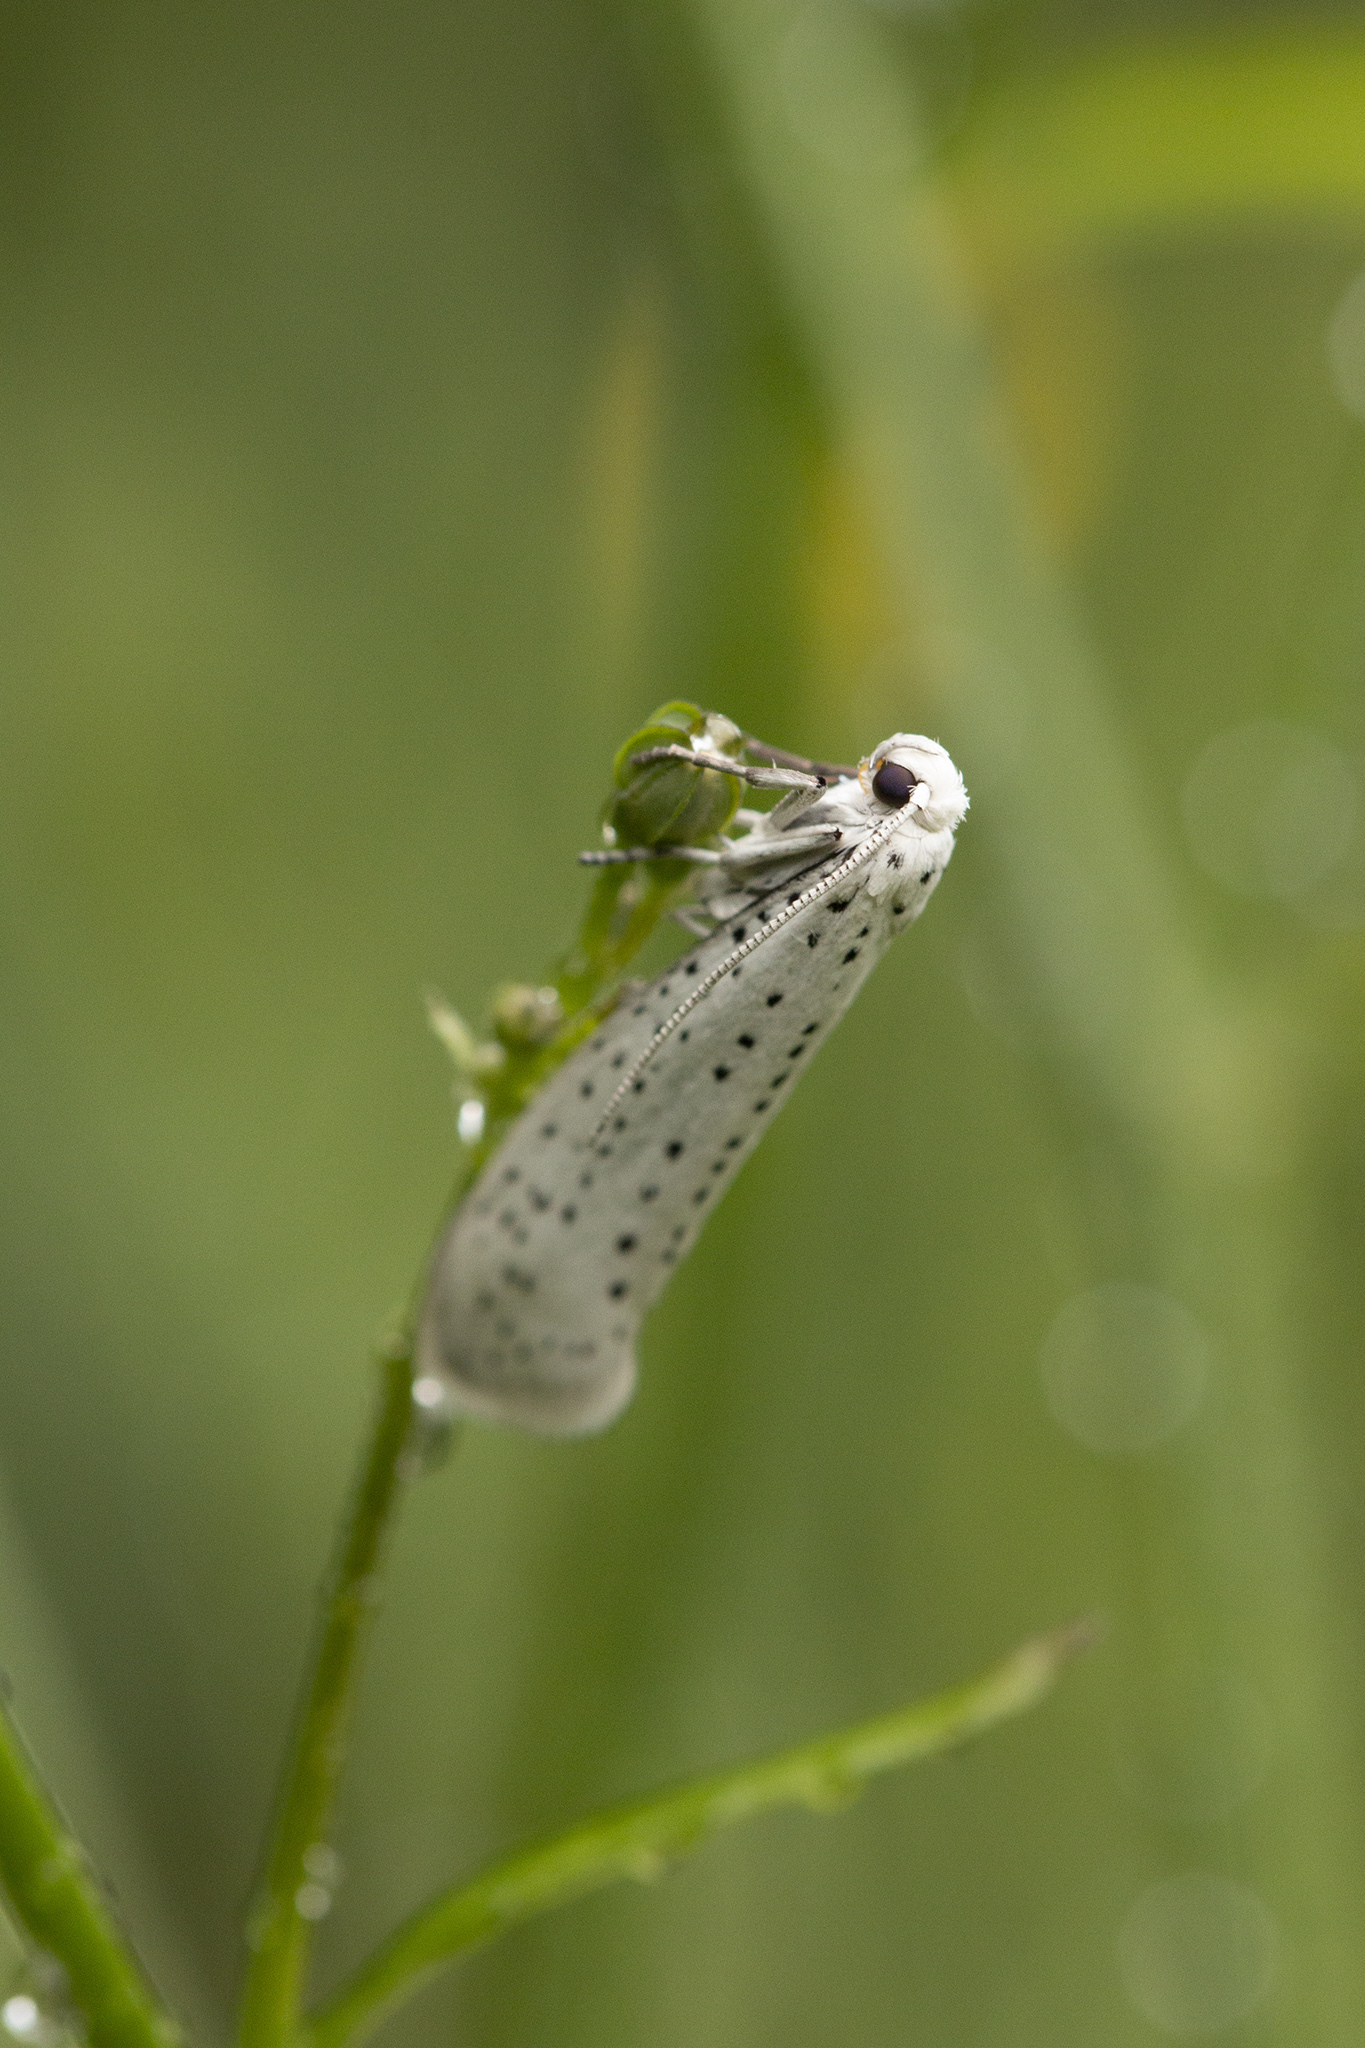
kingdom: Animalia
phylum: Arthropoda
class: Insecta
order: Lepidoptera
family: Yponomeutidae
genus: Yponomeuta
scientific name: Yponomeuta evonymella
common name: Bird-cherry ermine
